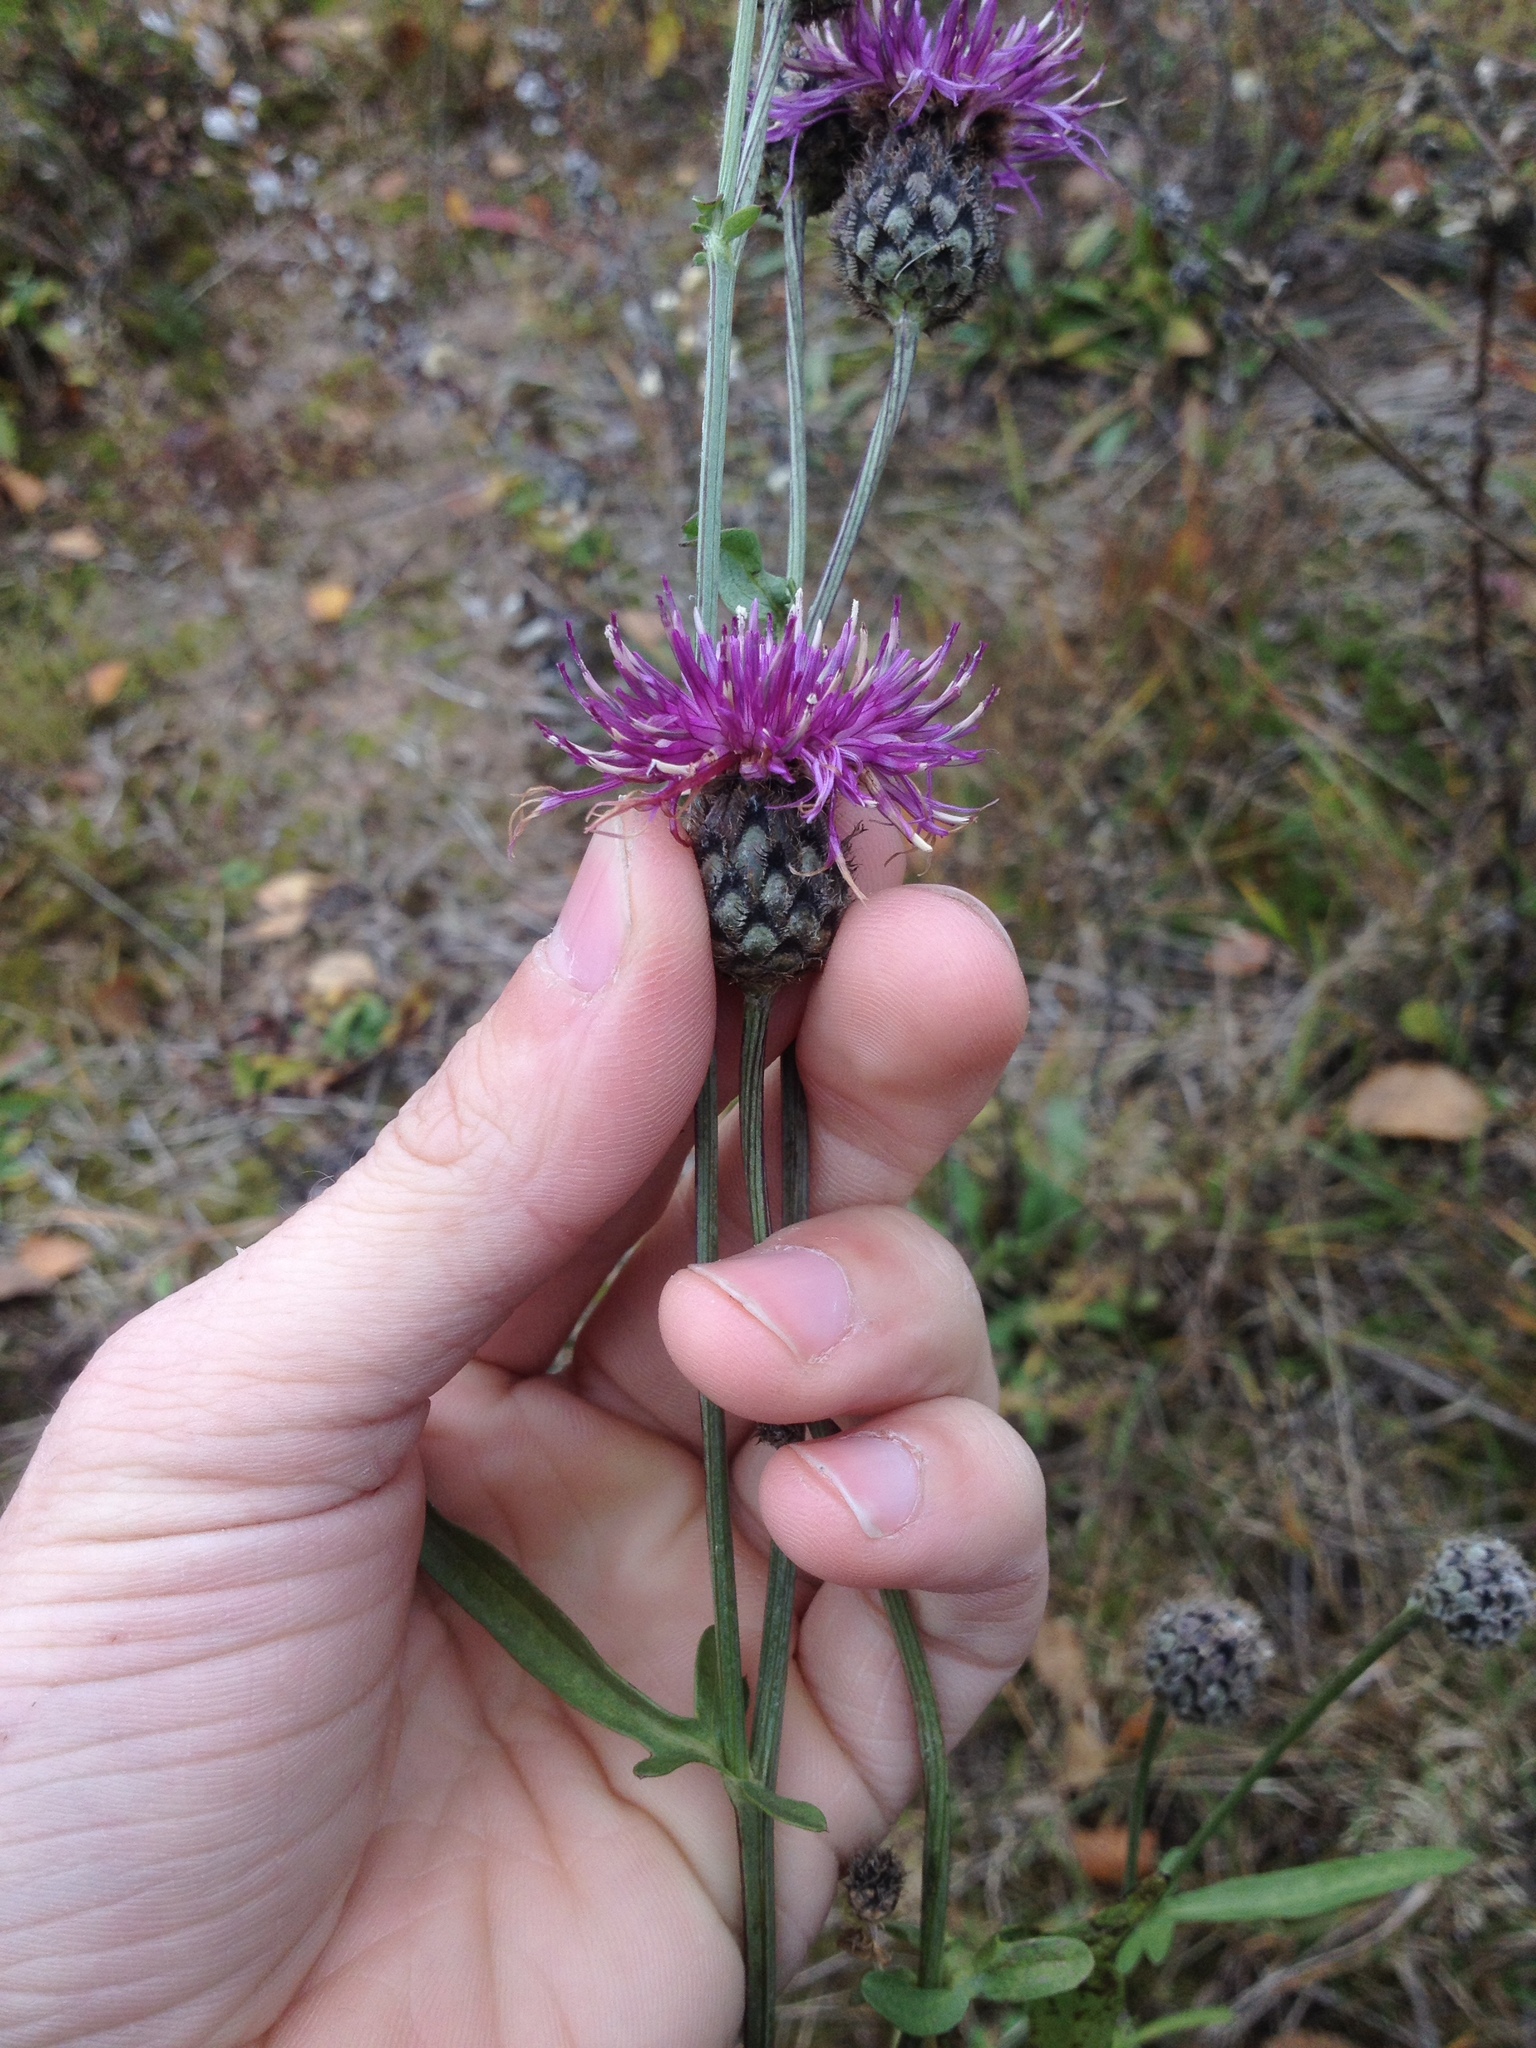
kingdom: Plantae
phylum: Tracheophyta
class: Magnoliopsida
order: Asterales
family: Asteraceae
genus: Centaurea
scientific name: Centaurea scabiosa
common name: Greater knapweed
